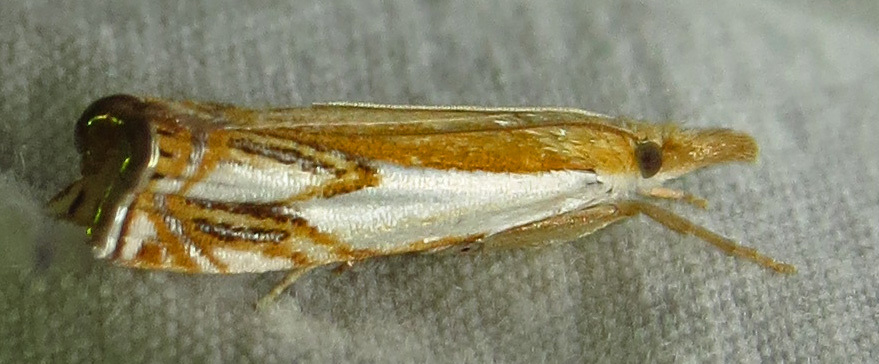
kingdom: Animalia
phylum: Arthropoda
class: Insecta
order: Lepidoptera
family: Crambidae
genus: Crambus
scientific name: Crambus agitatellus
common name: Double-banded grass-veneer
